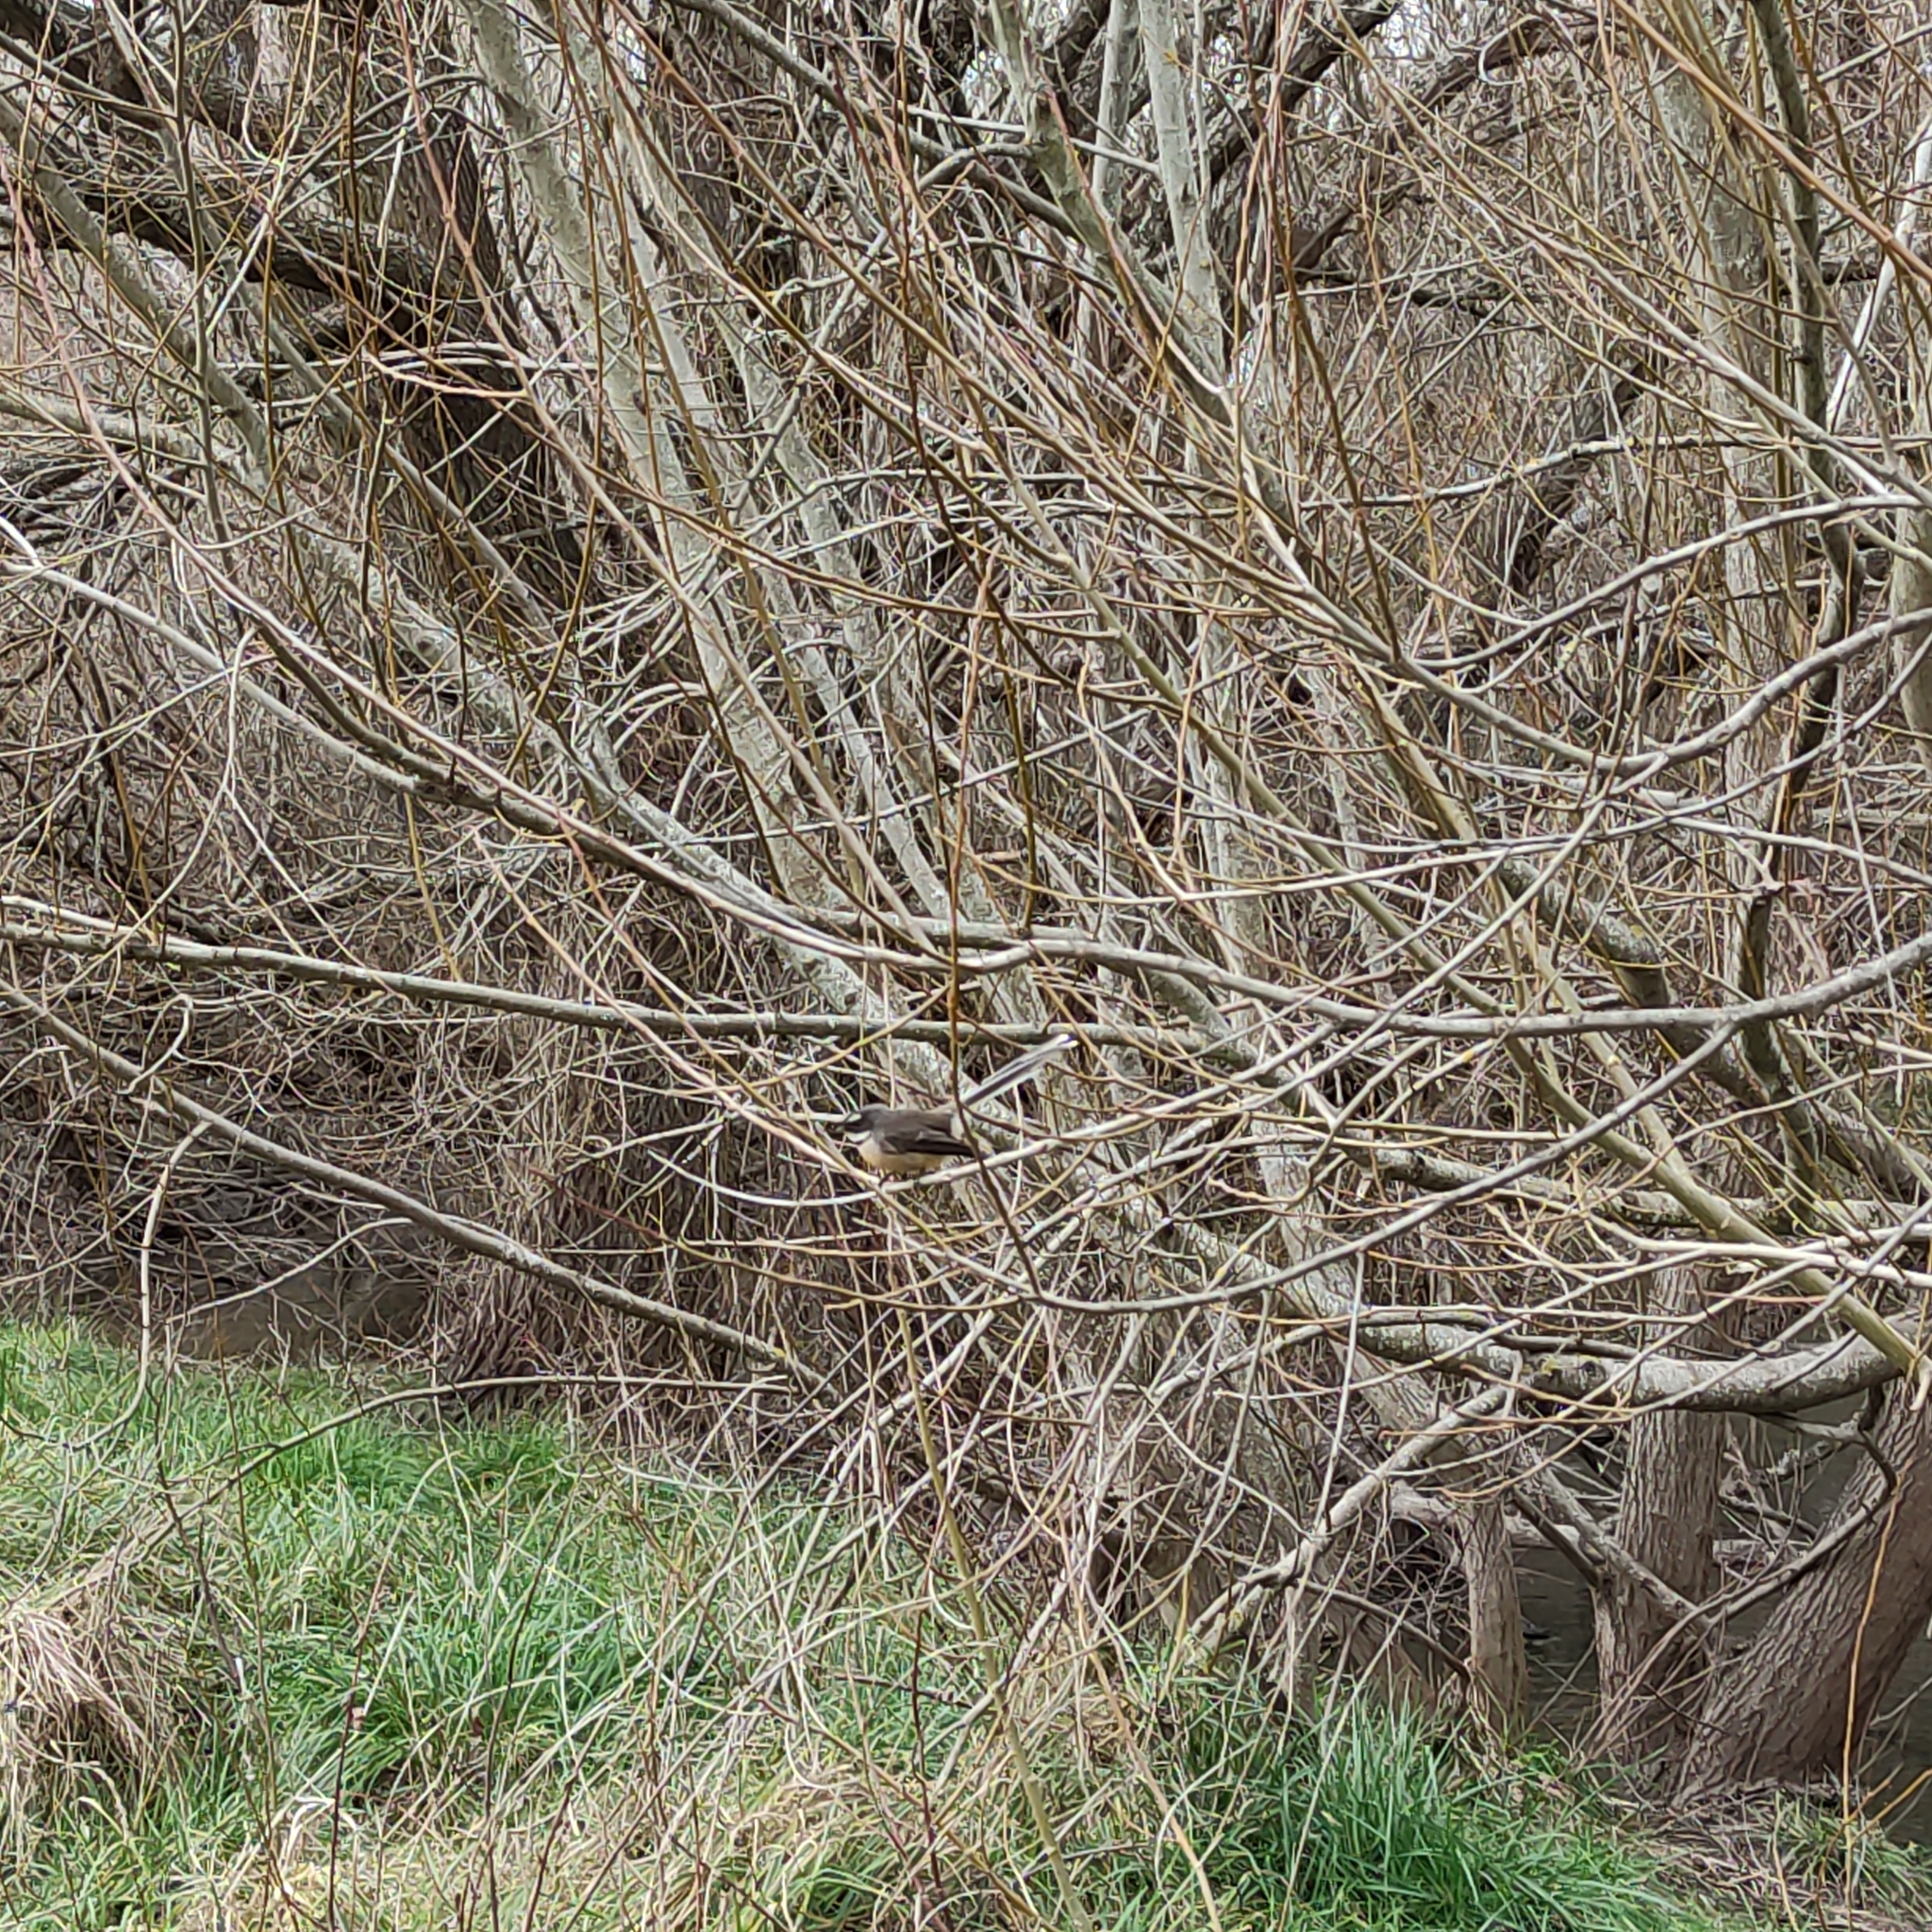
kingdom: Animalia
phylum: Chordata
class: Aves
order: Passeriformes
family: Rhipiduridae
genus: Rhipidura
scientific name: Rhipidura fuliginosa
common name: New zealand fantail
